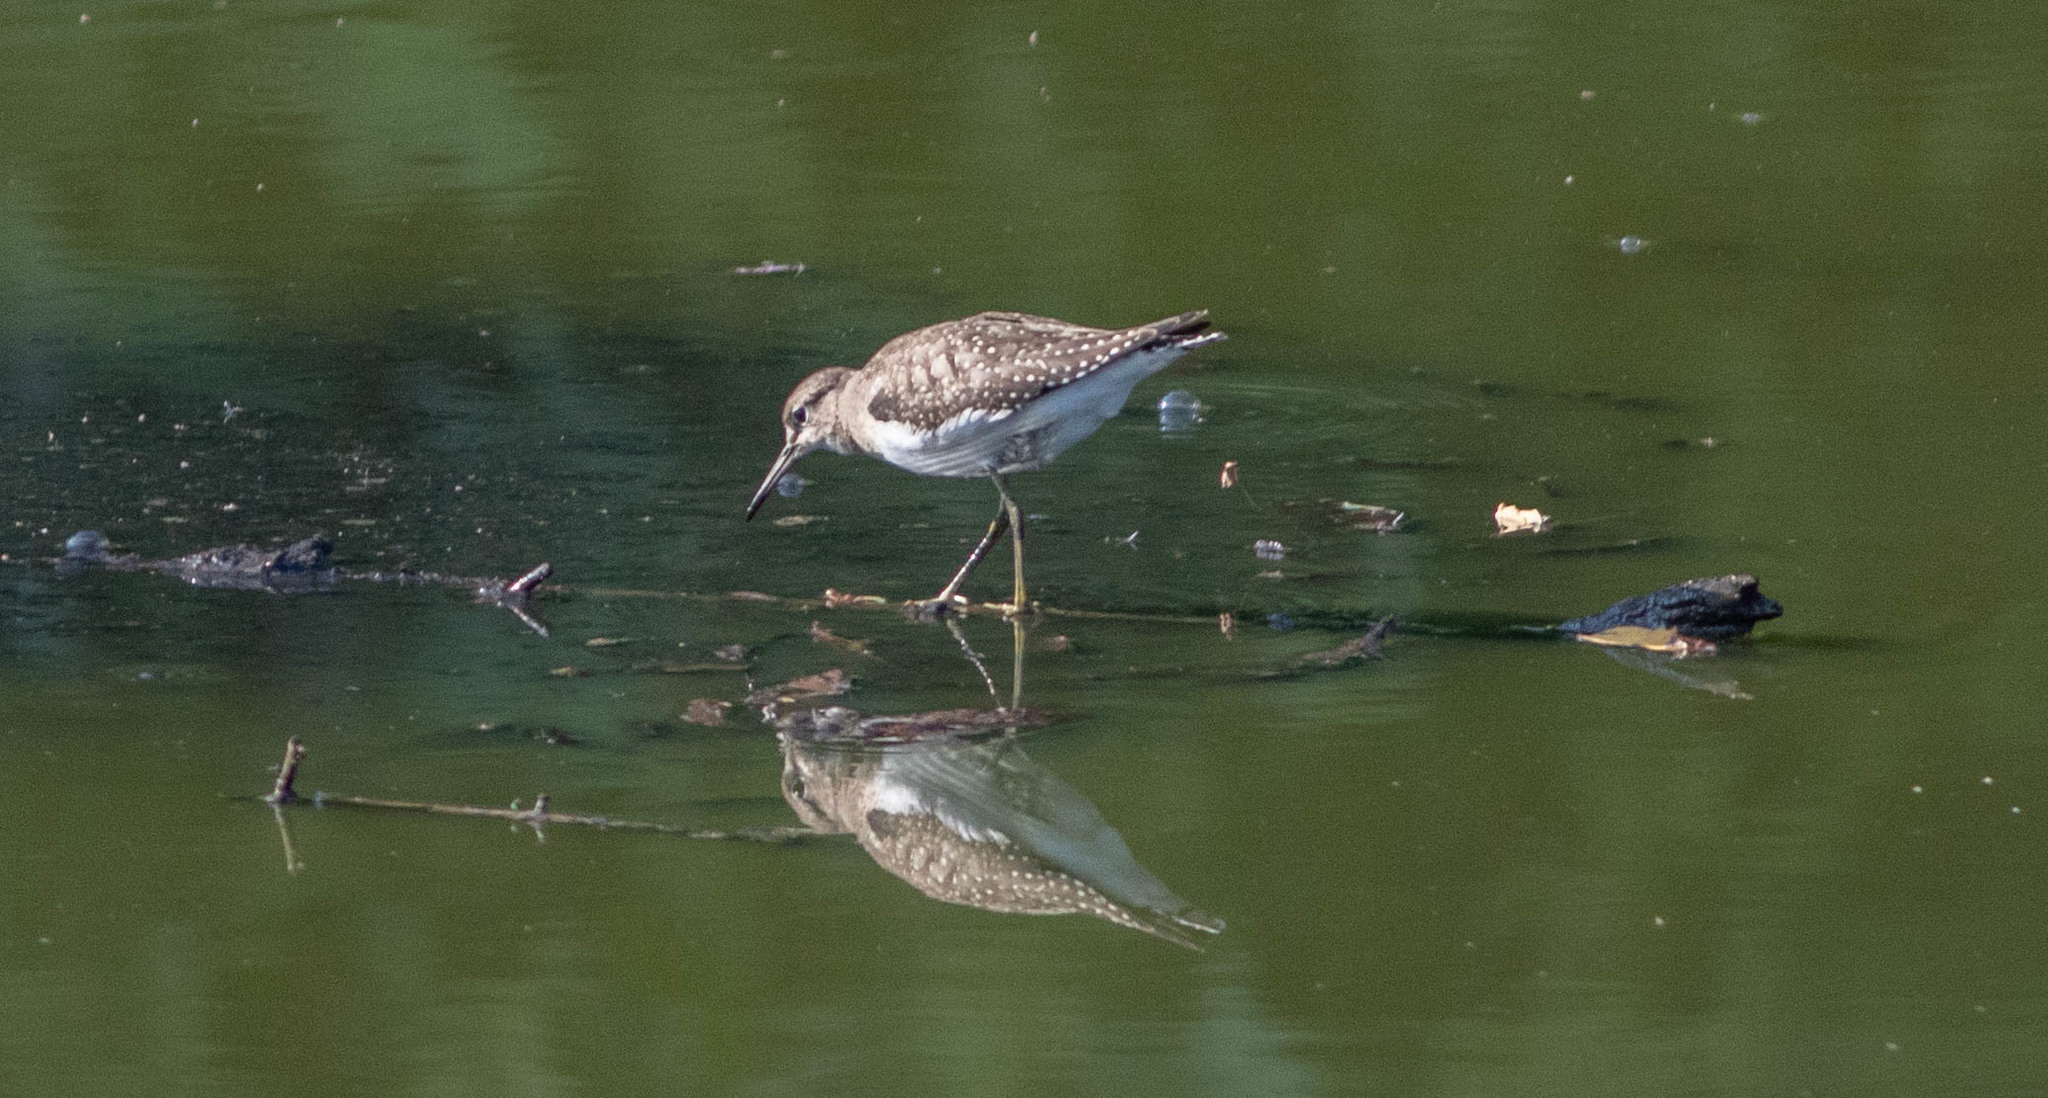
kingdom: Animalia
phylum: Chordata
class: Aves
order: Charadriiformes
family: Scolopacidae
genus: Tringa
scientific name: Tringa solitaria
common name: Solitary sandpiper
